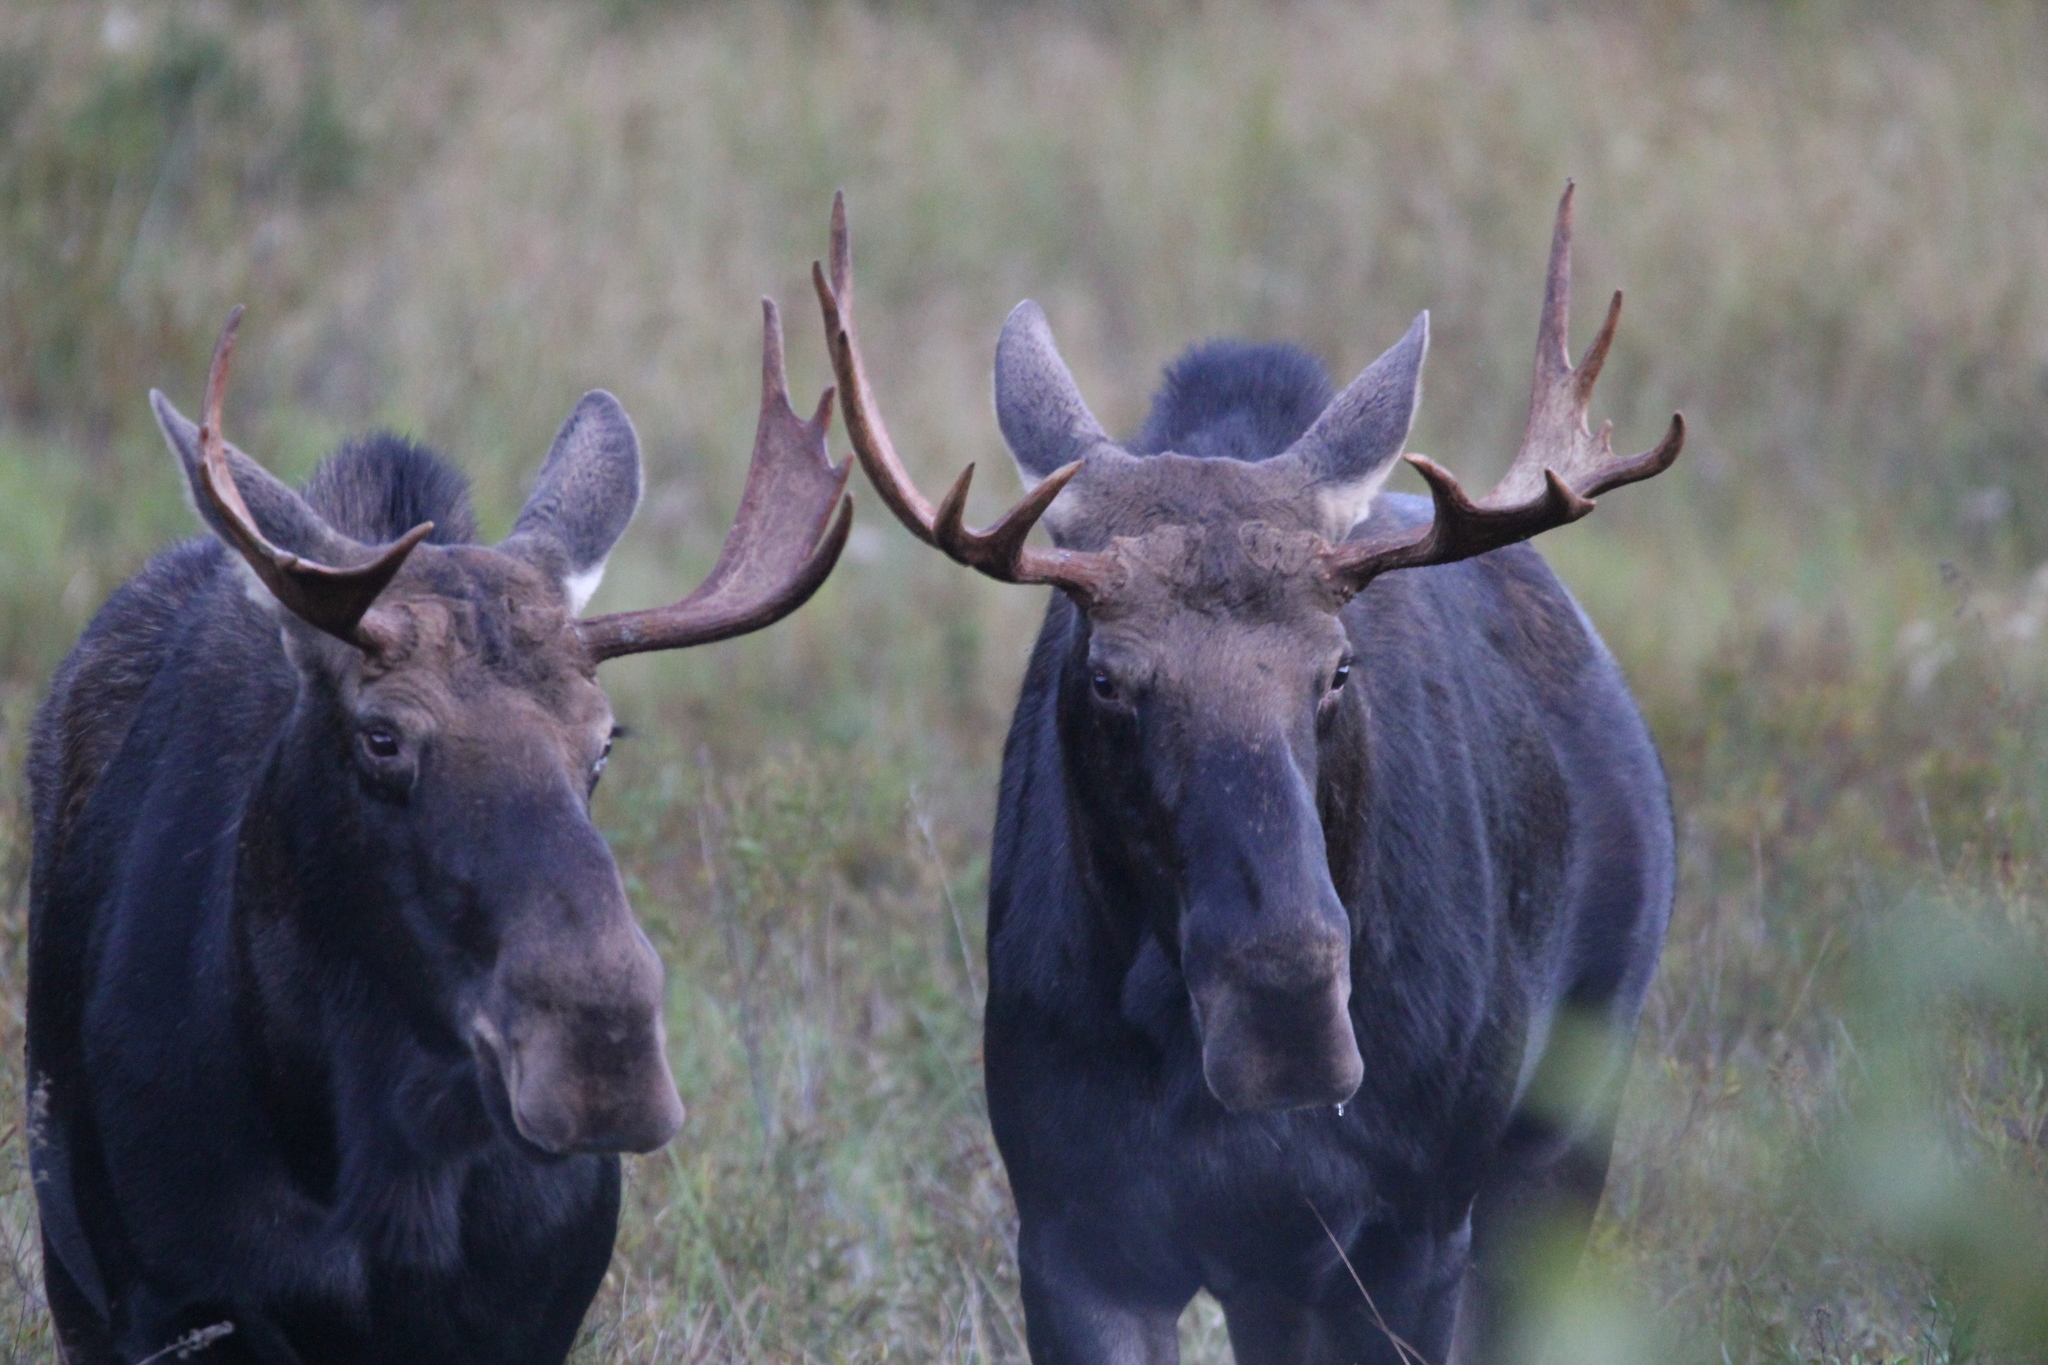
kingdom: Animalia
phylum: Chordata
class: Mammalia
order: Artiodactyla
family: Cervidae
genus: Alces
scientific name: Alces alces
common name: Moose
